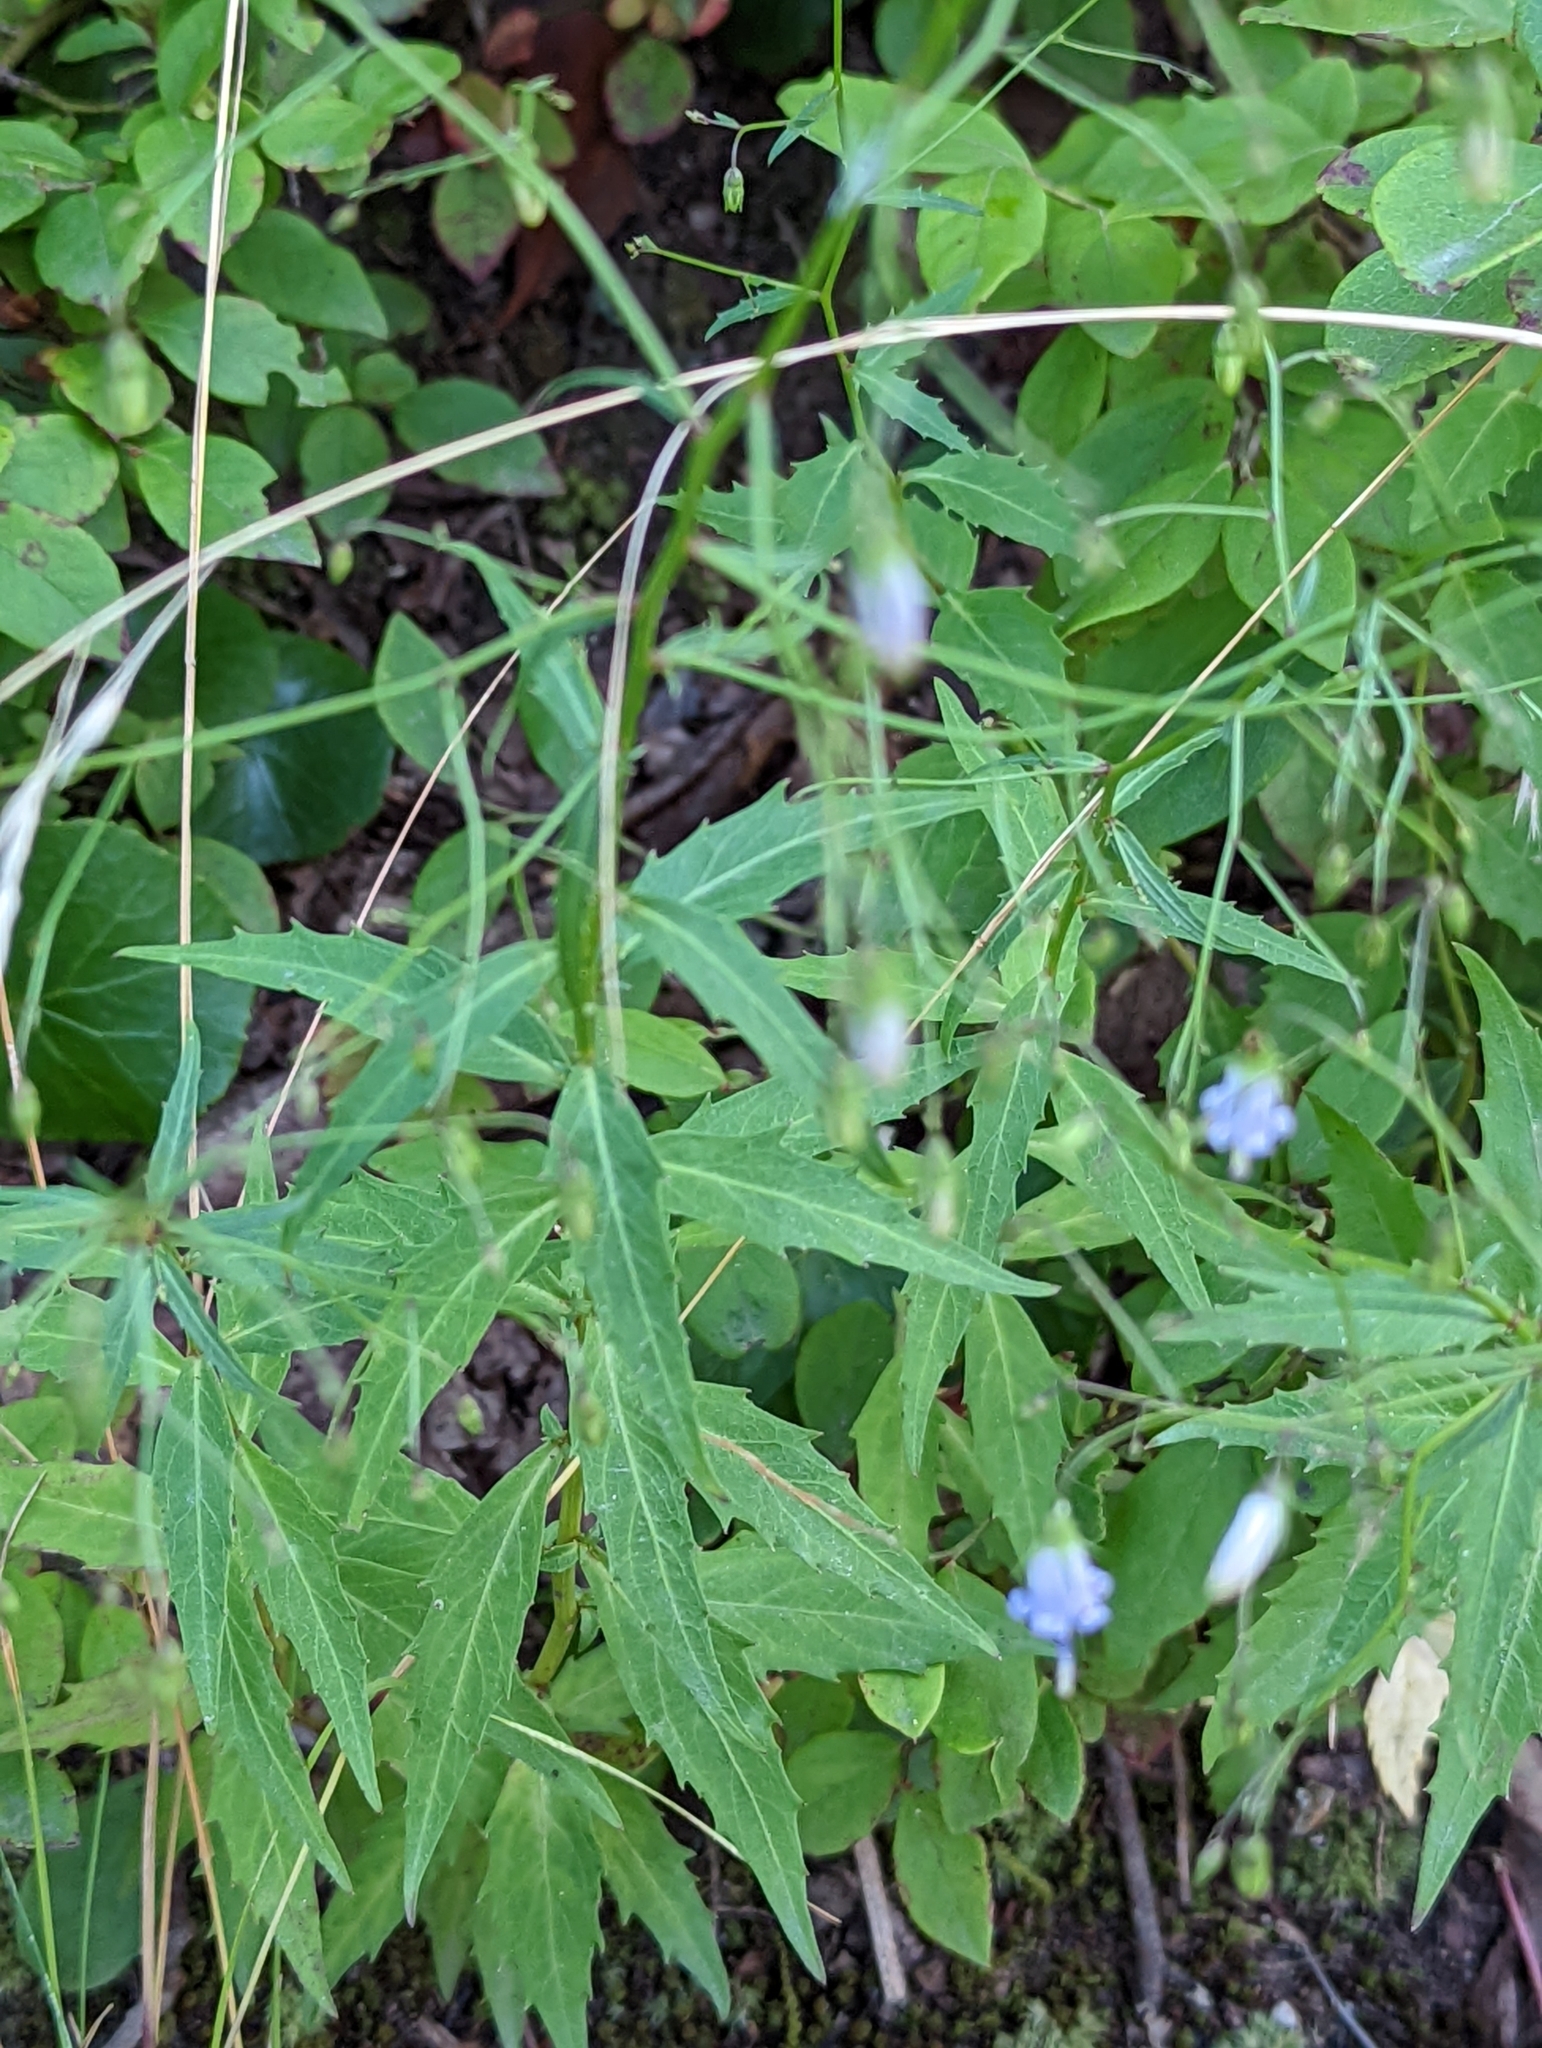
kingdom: Plantae
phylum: Tracheophyta
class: Magnoliopsida
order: Asterales
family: Campanulaceae
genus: Campanula
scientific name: Campanula divaricata
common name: Appalachian bellflower
